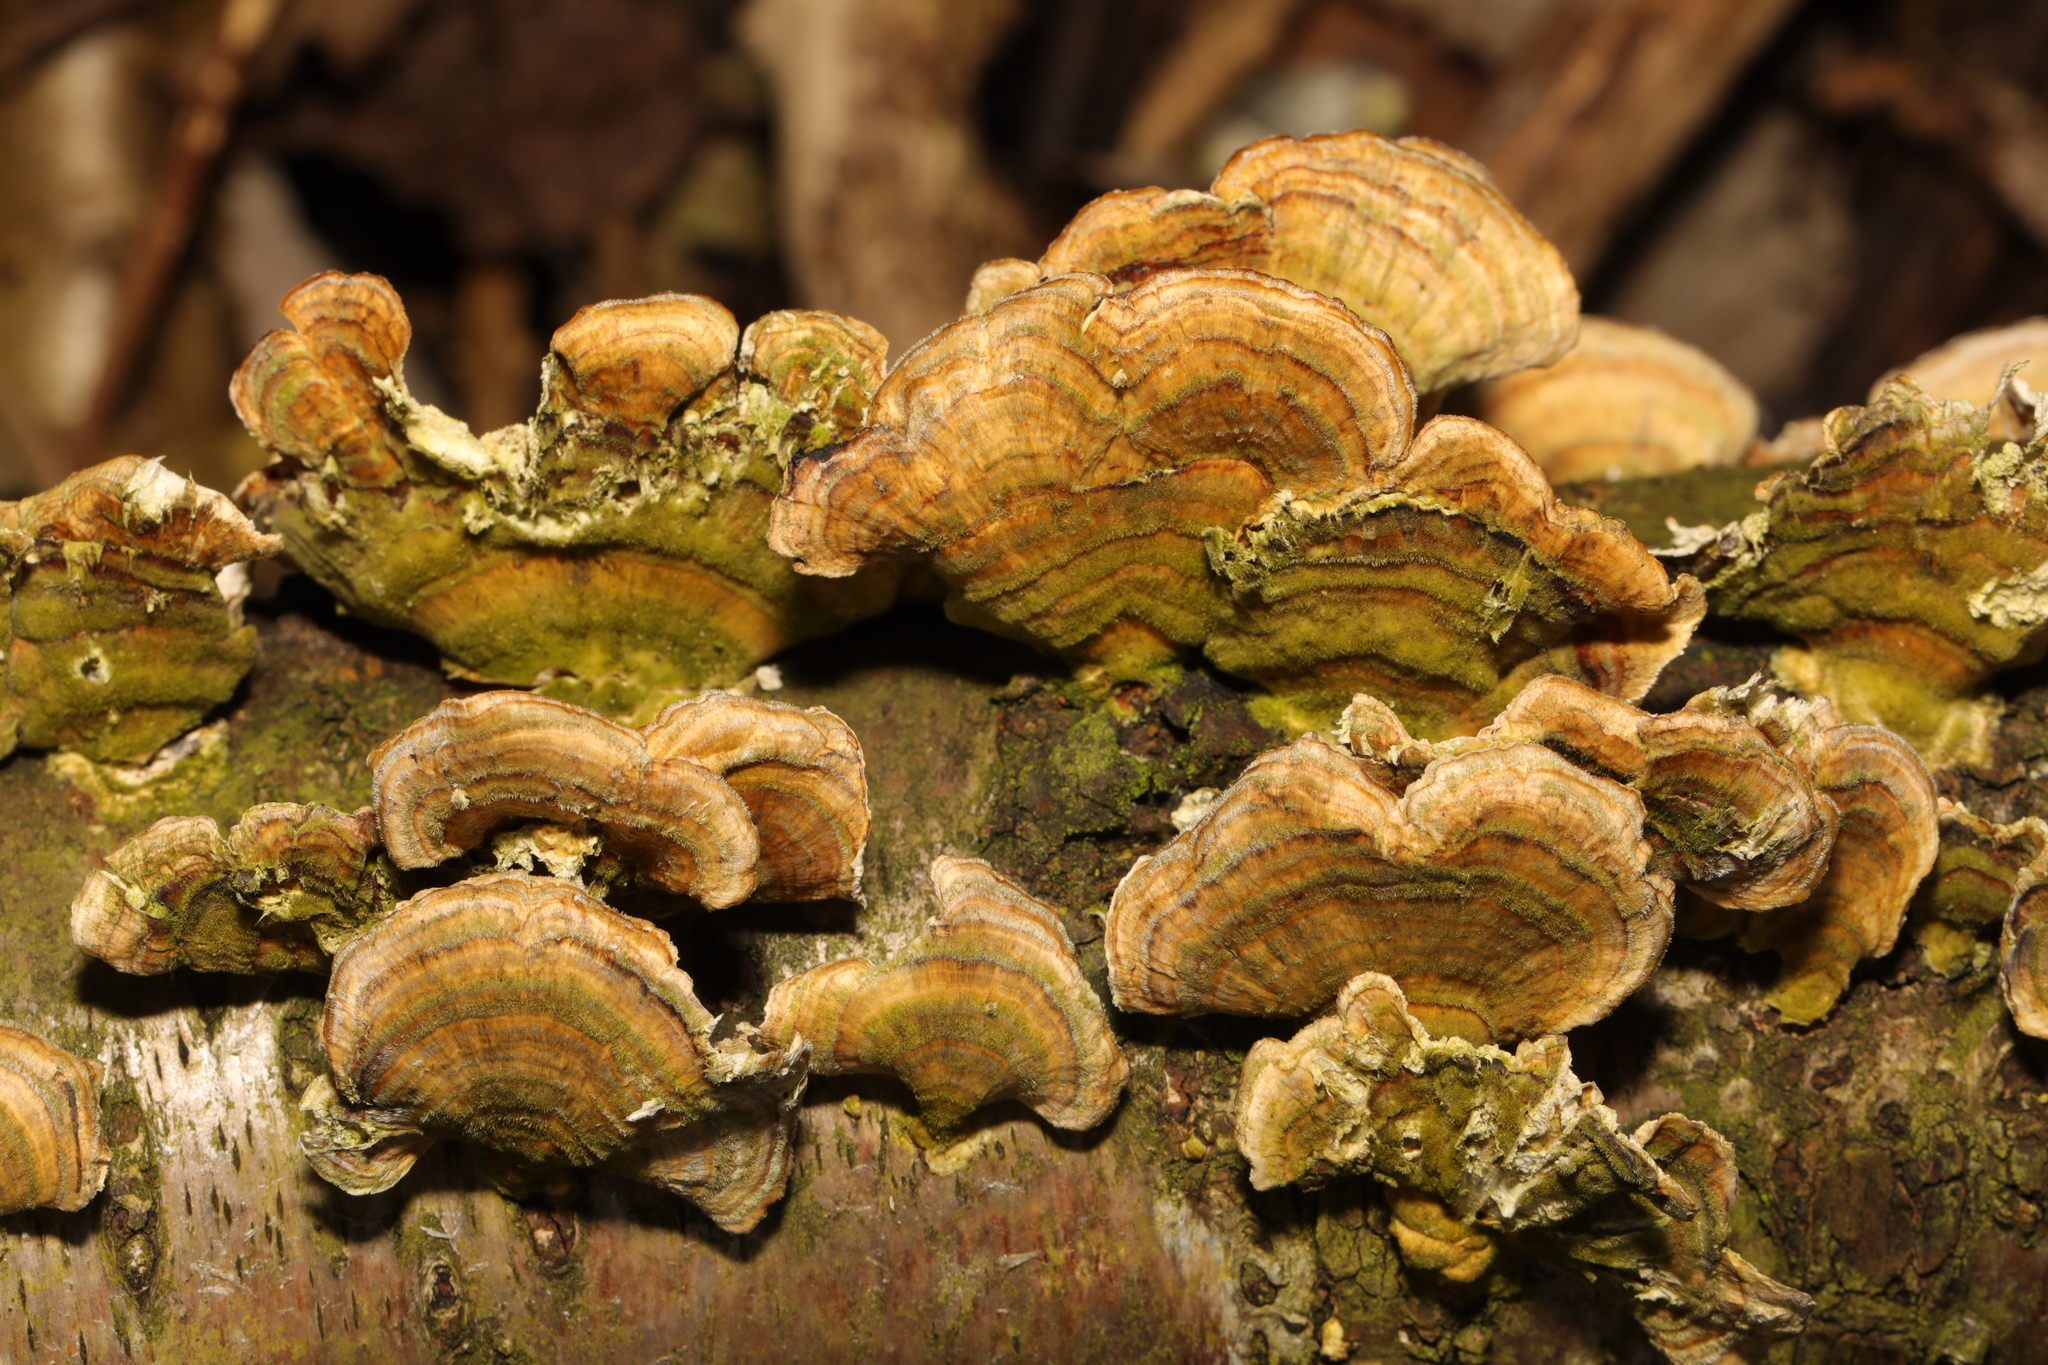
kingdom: Fungi
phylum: Basidiomycota
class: Agaricomycetes
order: Polyporales
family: Polyporaceae
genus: Trametes
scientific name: Trametes versicolor
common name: Turkeytail
